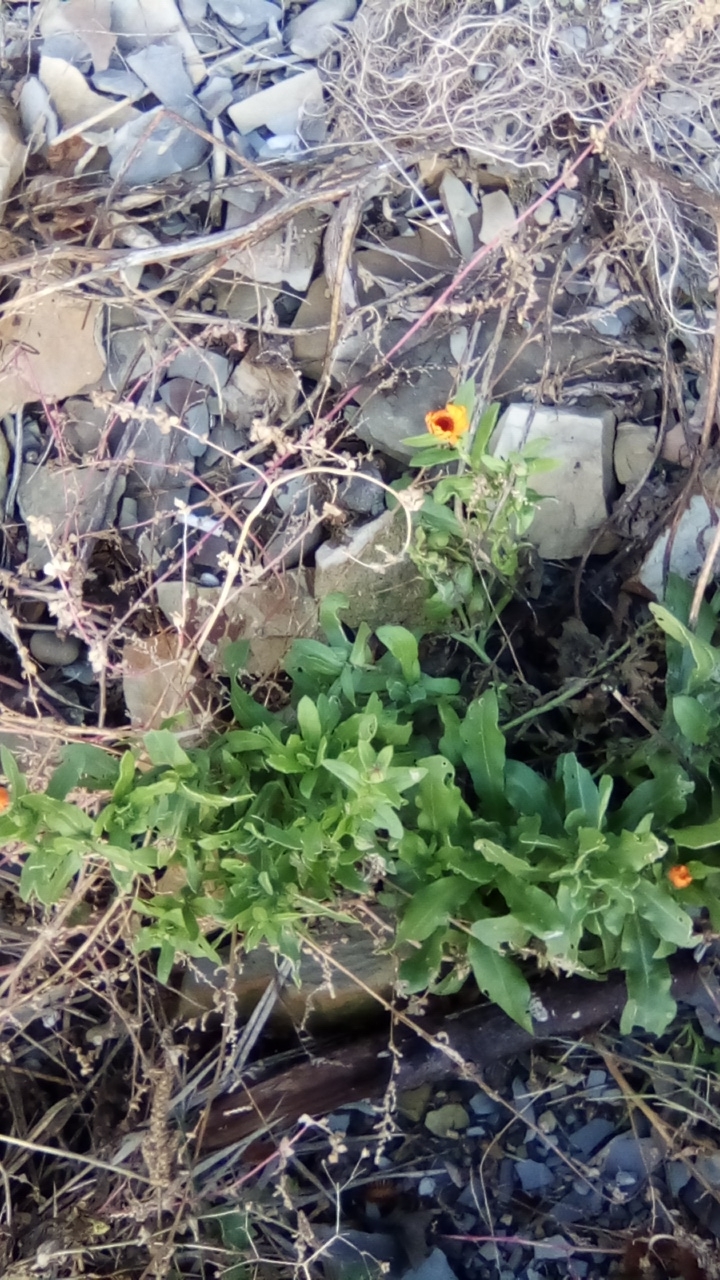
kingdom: Plantae
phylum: Tracheophyta
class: Magnoliopsida
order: Asterales
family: Asteraceae
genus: Calendula
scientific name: Calendula officinalis
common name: Pot marigold
